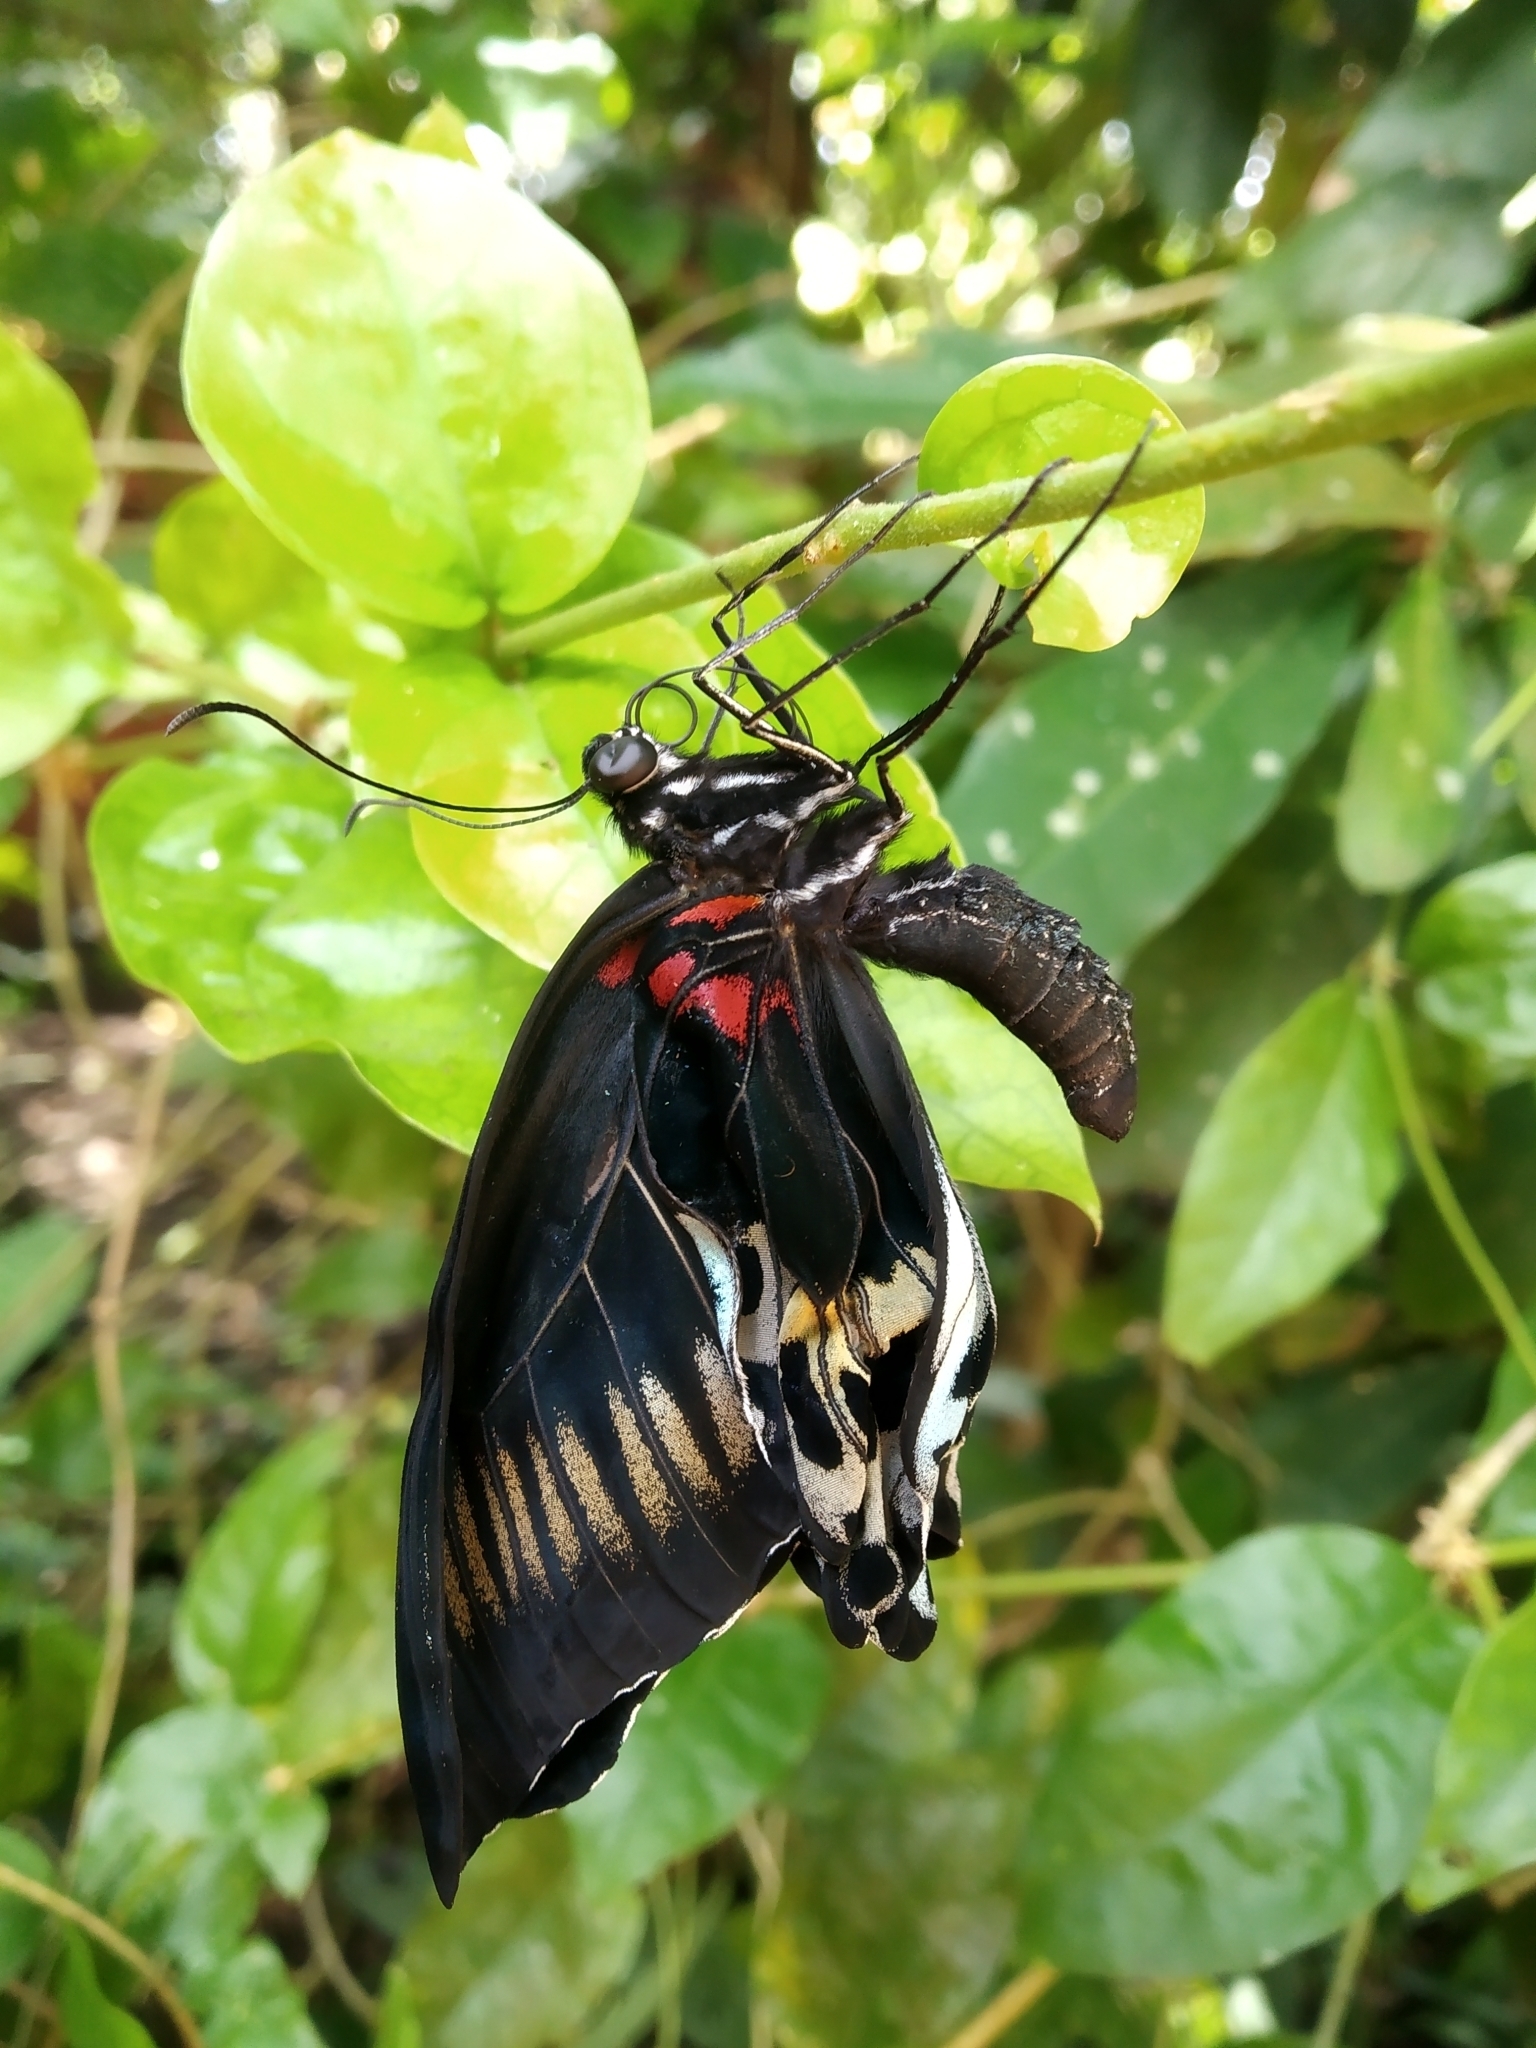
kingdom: Animalia
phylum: Arthropoda
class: Insecta
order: Lepidoptera
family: Papilionidae
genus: Papilio
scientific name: Papilio memnon
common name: Great mormon
